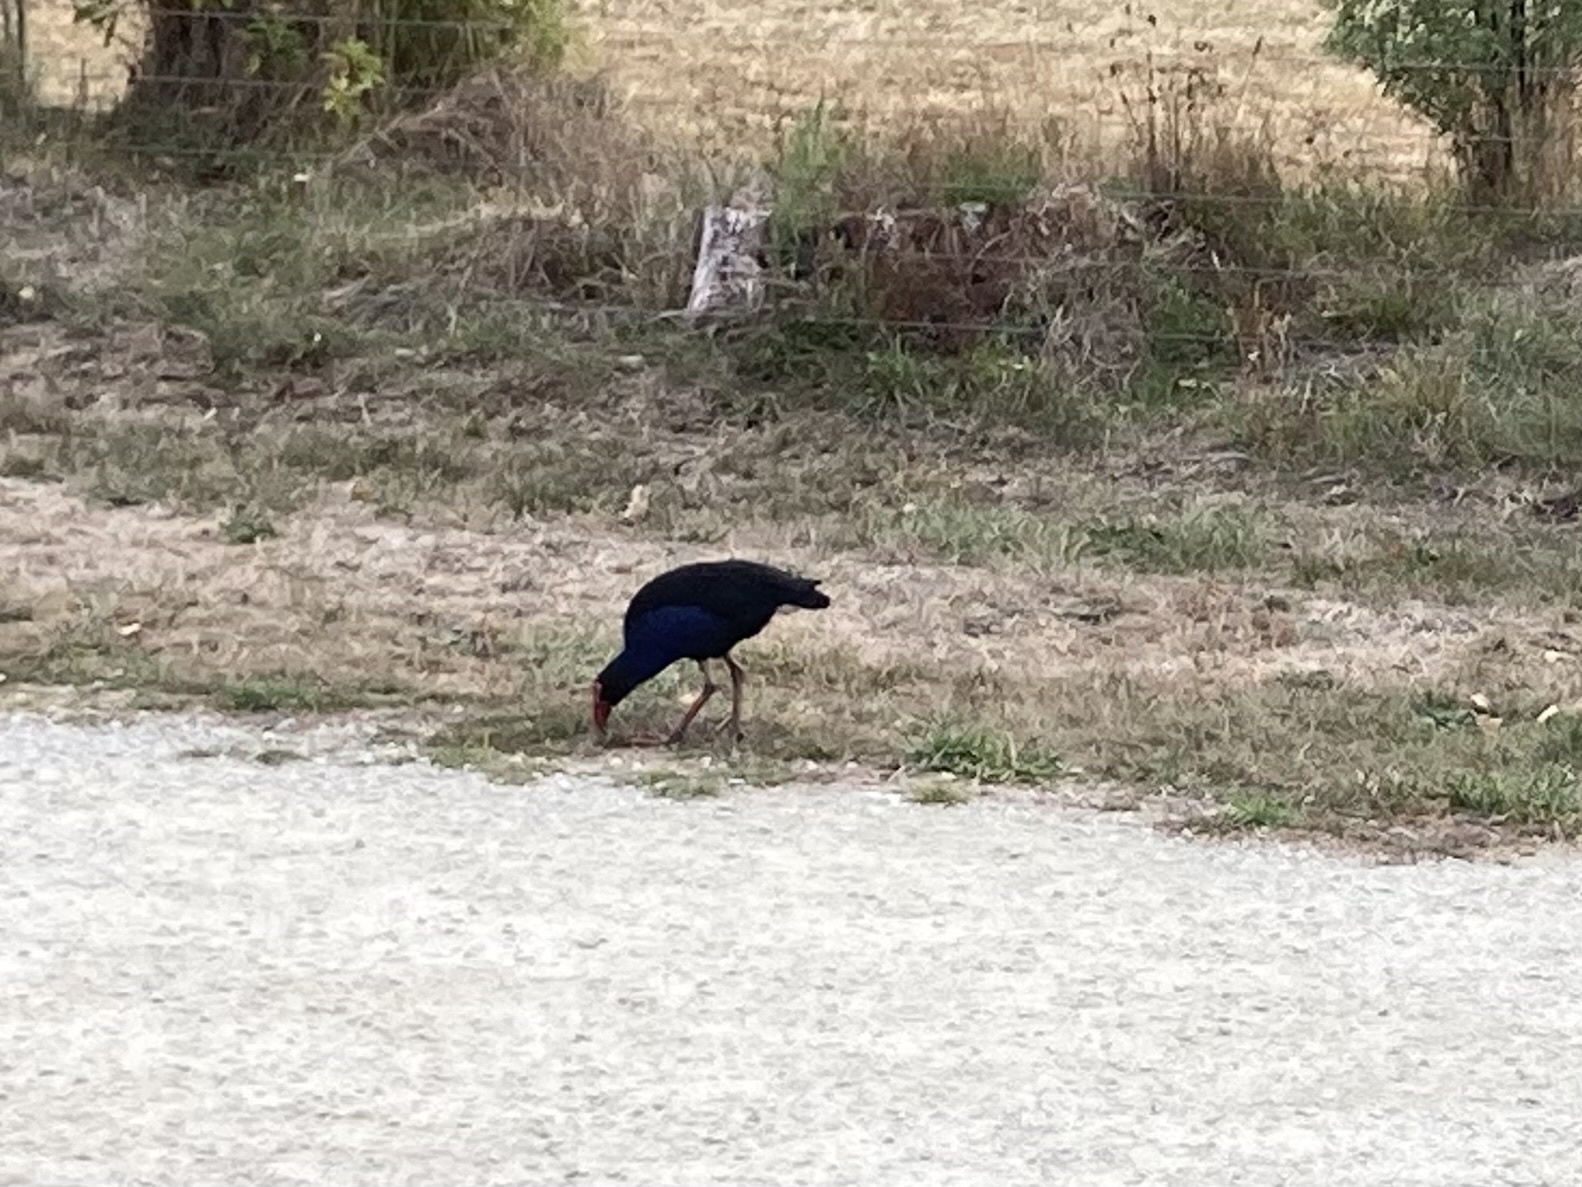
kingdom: Animalia
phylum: Chordata
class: Aves
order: Gruiformes
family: Rallidae
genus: Porphyrio
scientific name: Porphyrio melanotus
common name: Australasian swamphen
